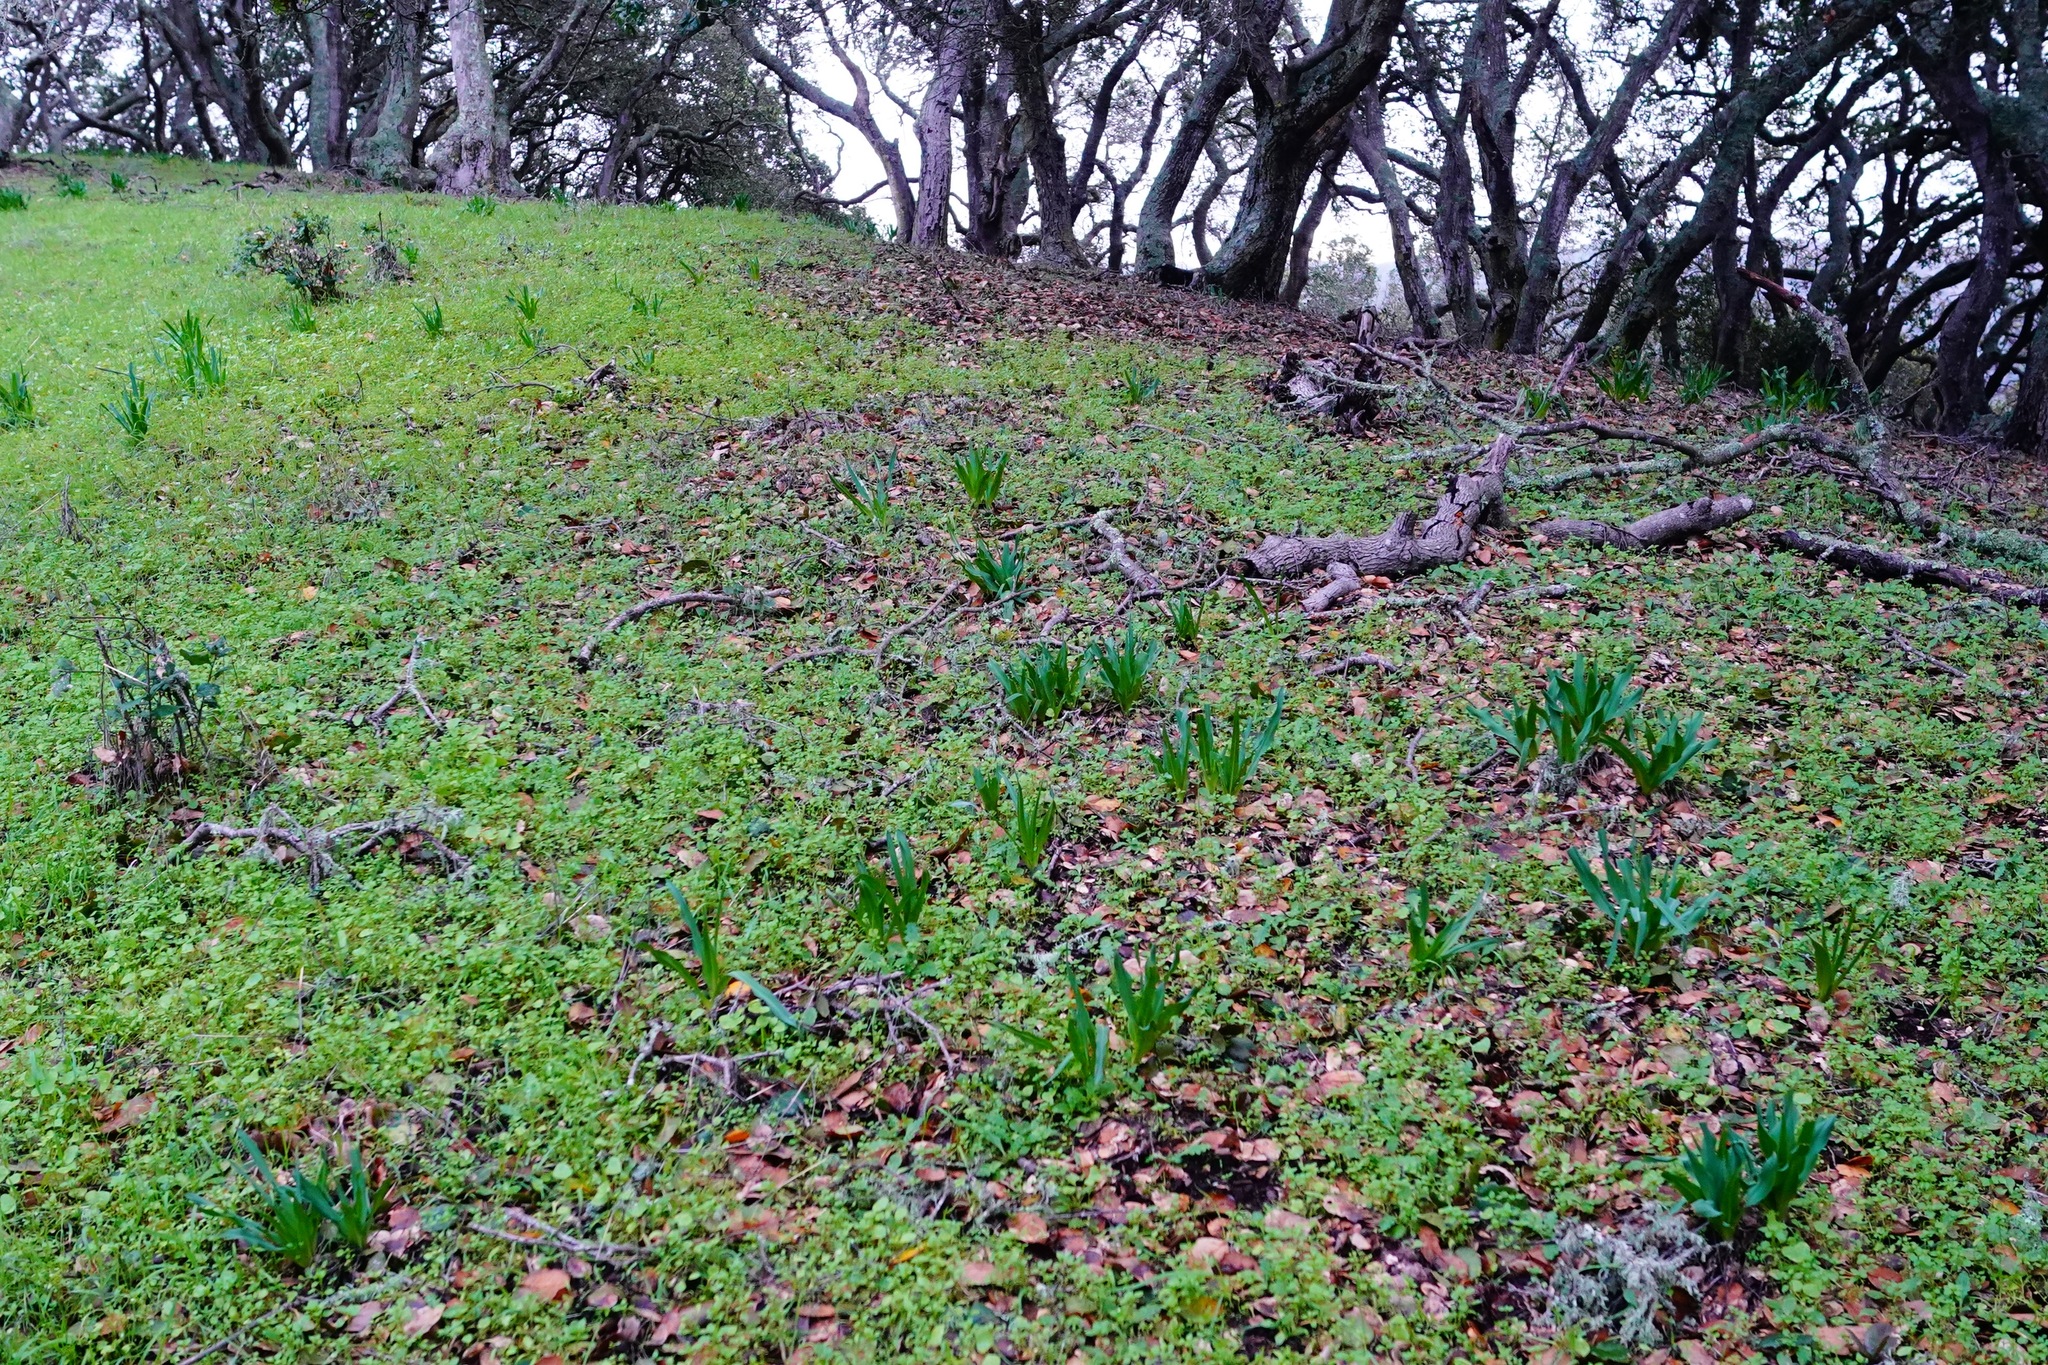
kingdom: Plantae
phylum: Tracheophyta
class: Liliopsida
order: Asparagales
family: Asparagaceae
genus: Chlorogalum
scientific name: Chlorogalum pomeridianum
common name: Amole
